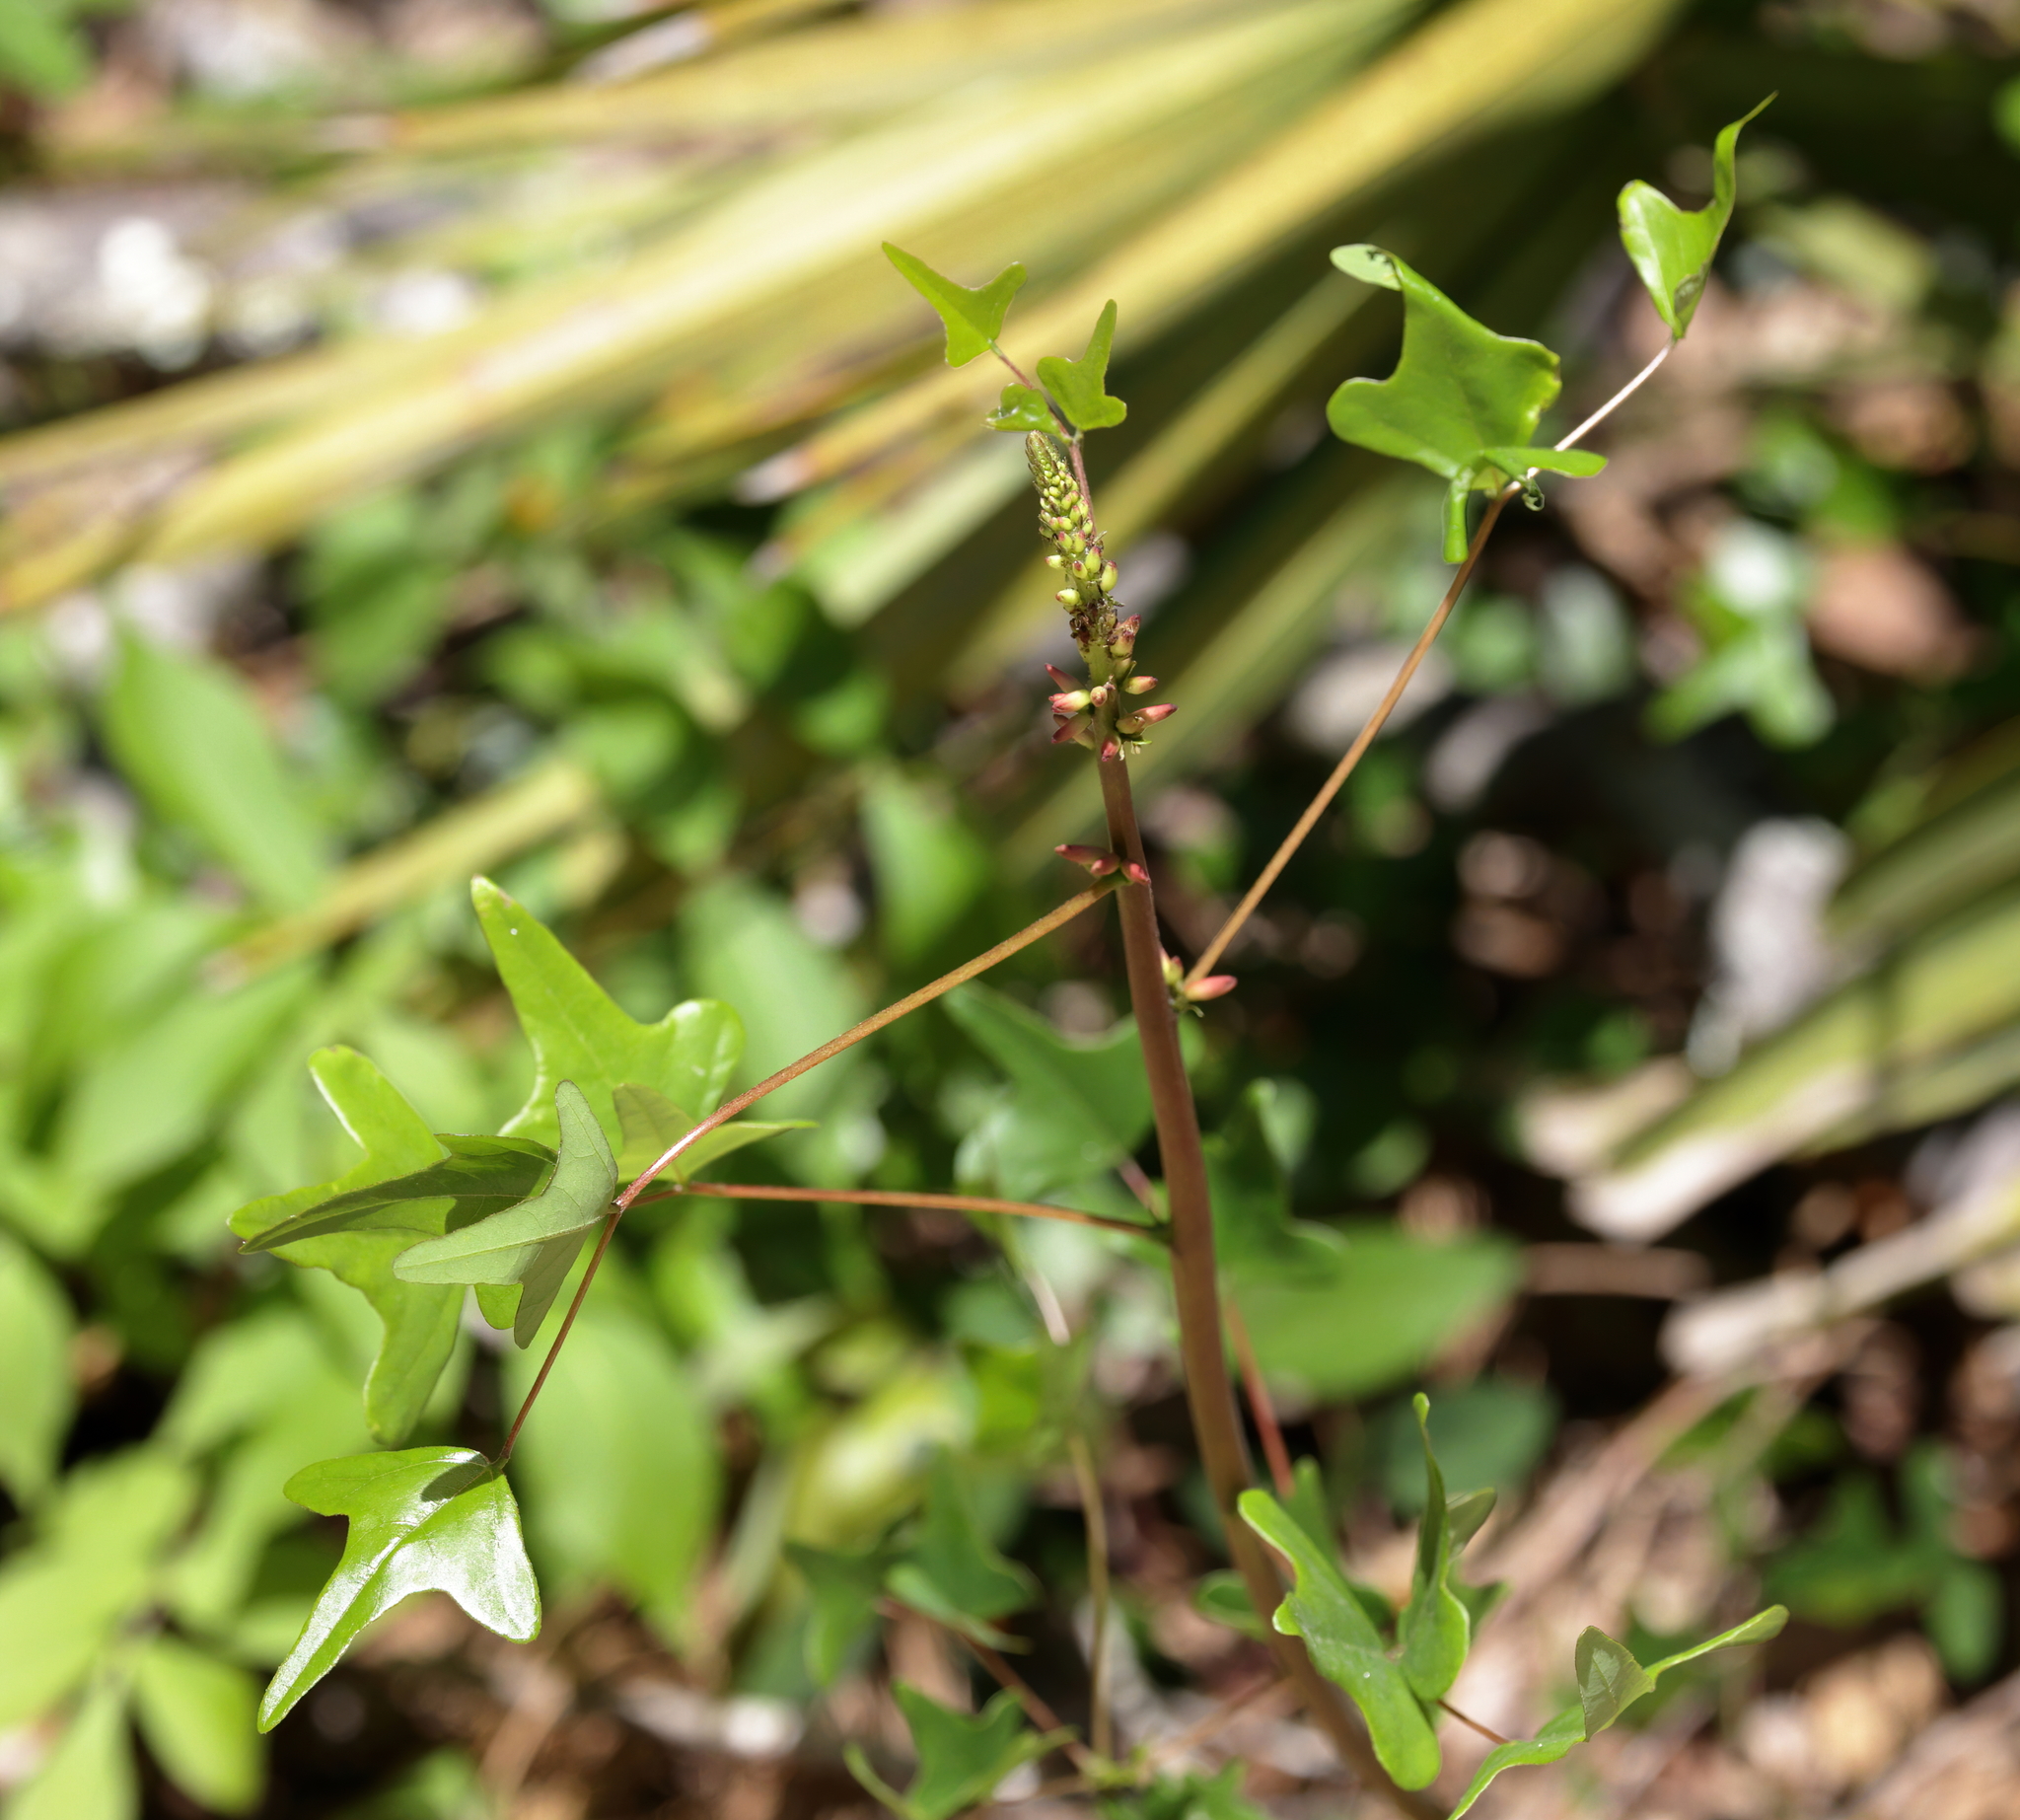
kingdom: Plantae
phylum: Tracheophyta
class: Magnoliopsida
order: Fabales
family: Fabaceae
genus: Erythrina
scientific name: Erythrina herbacea
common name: Coral-bean
